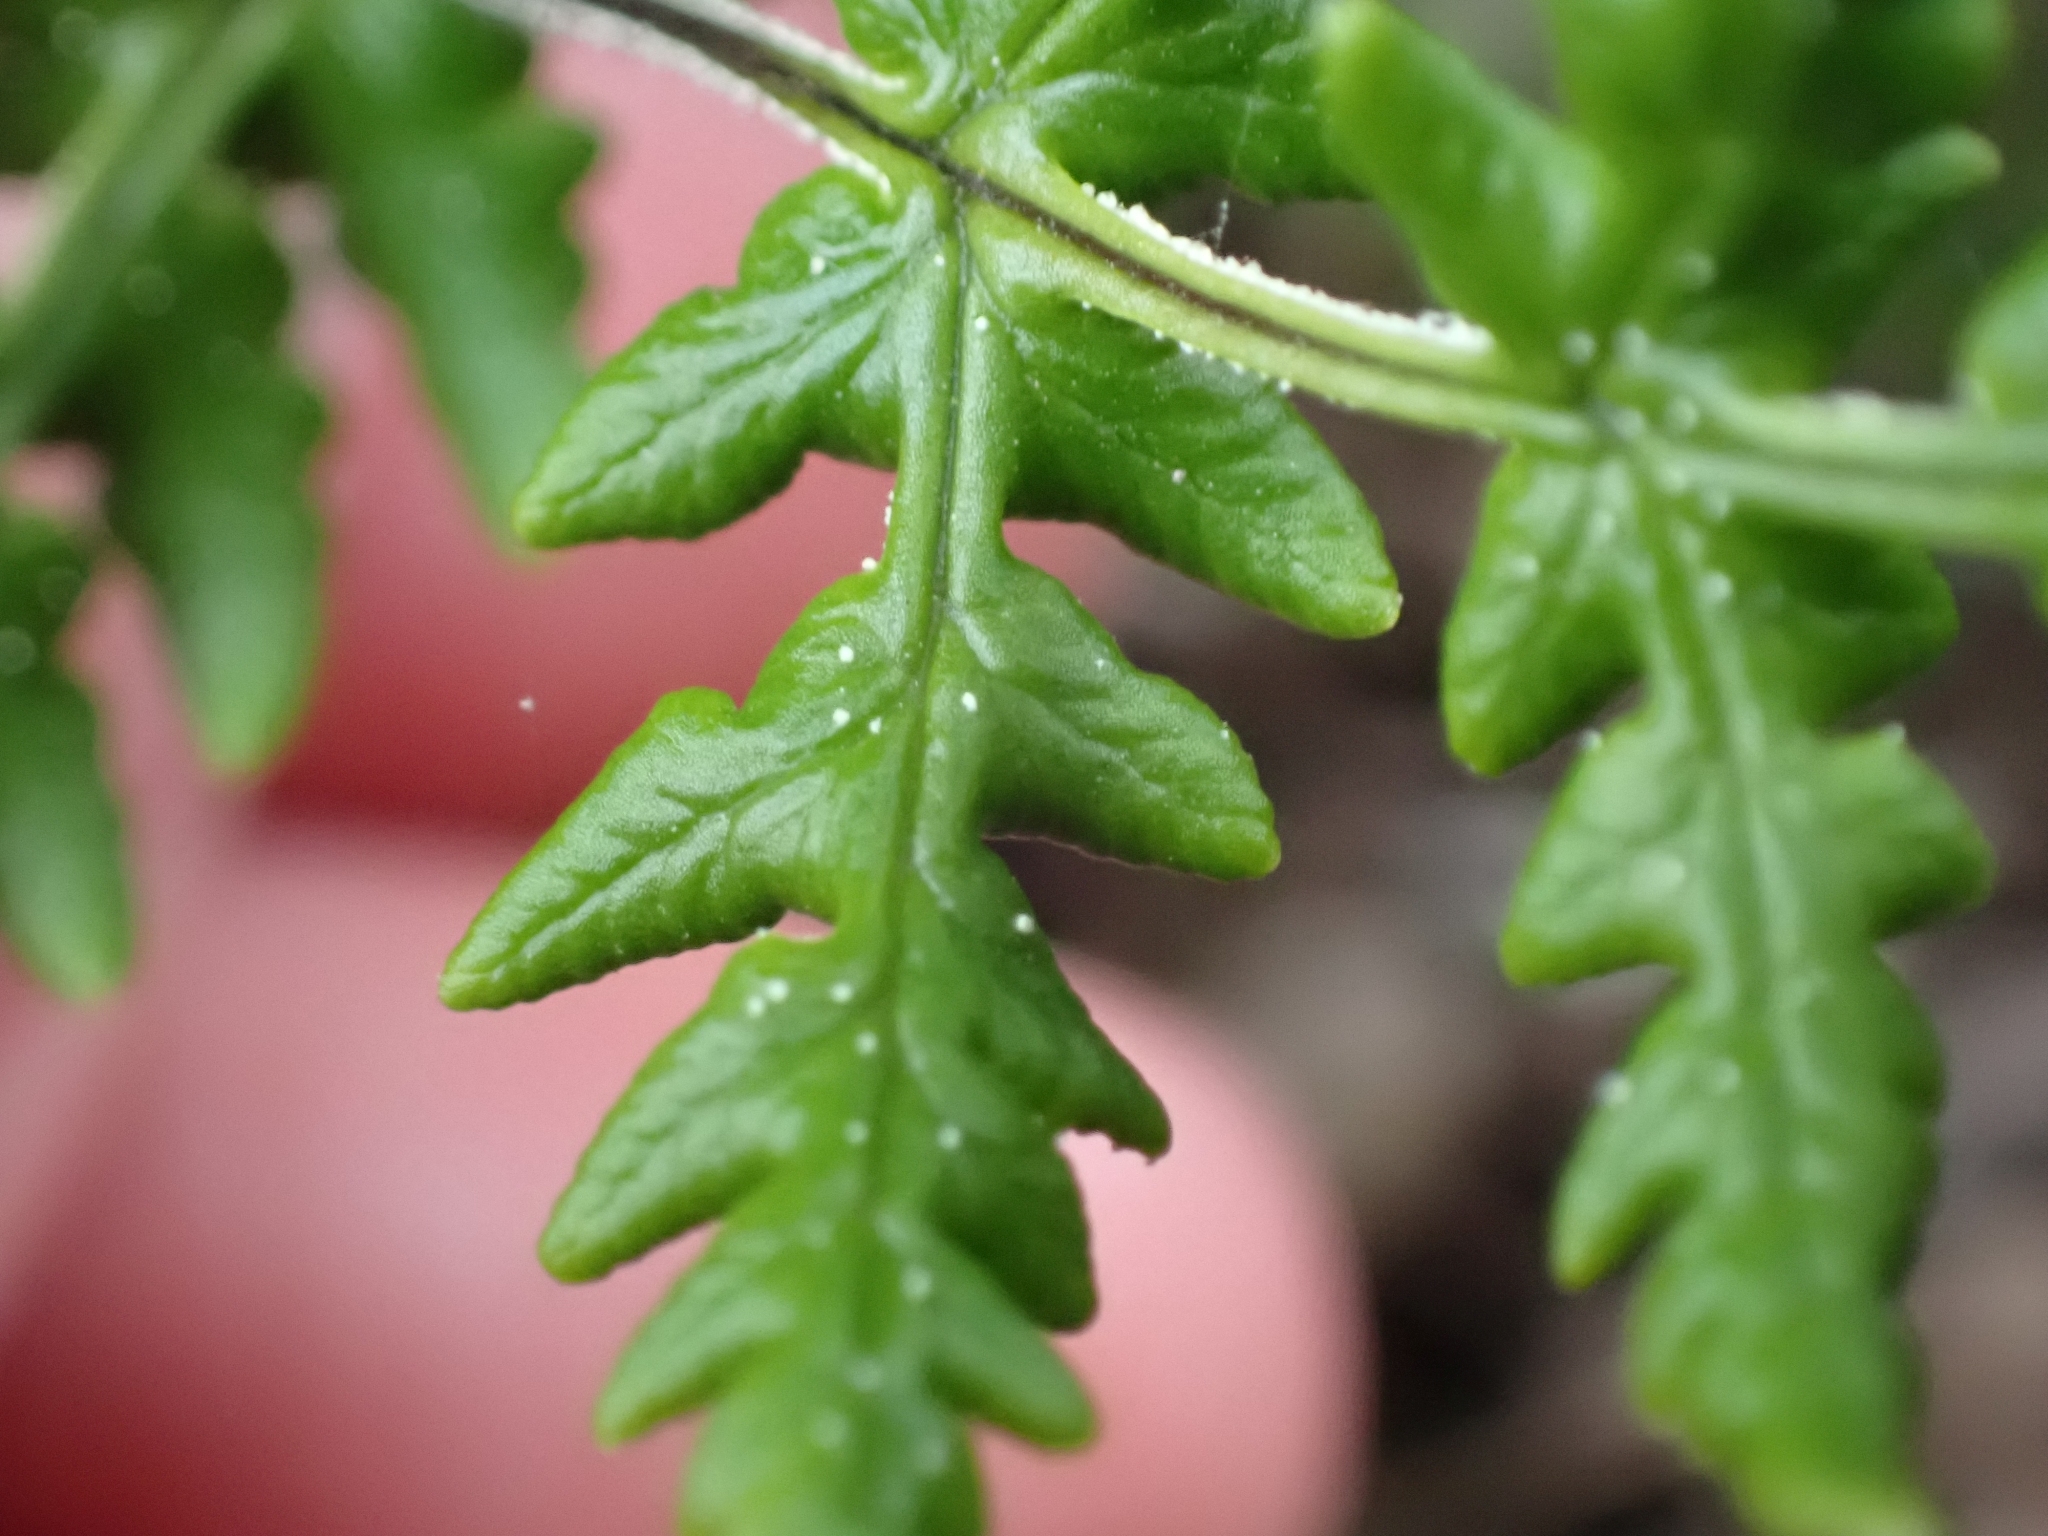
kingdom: Plantae
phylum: Tracheophyta
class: Polypodiopsida
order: Polypodiales
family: Pteridaceae
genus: Pentagramma
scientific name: Pentagramma triangularis
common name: Gold fern
